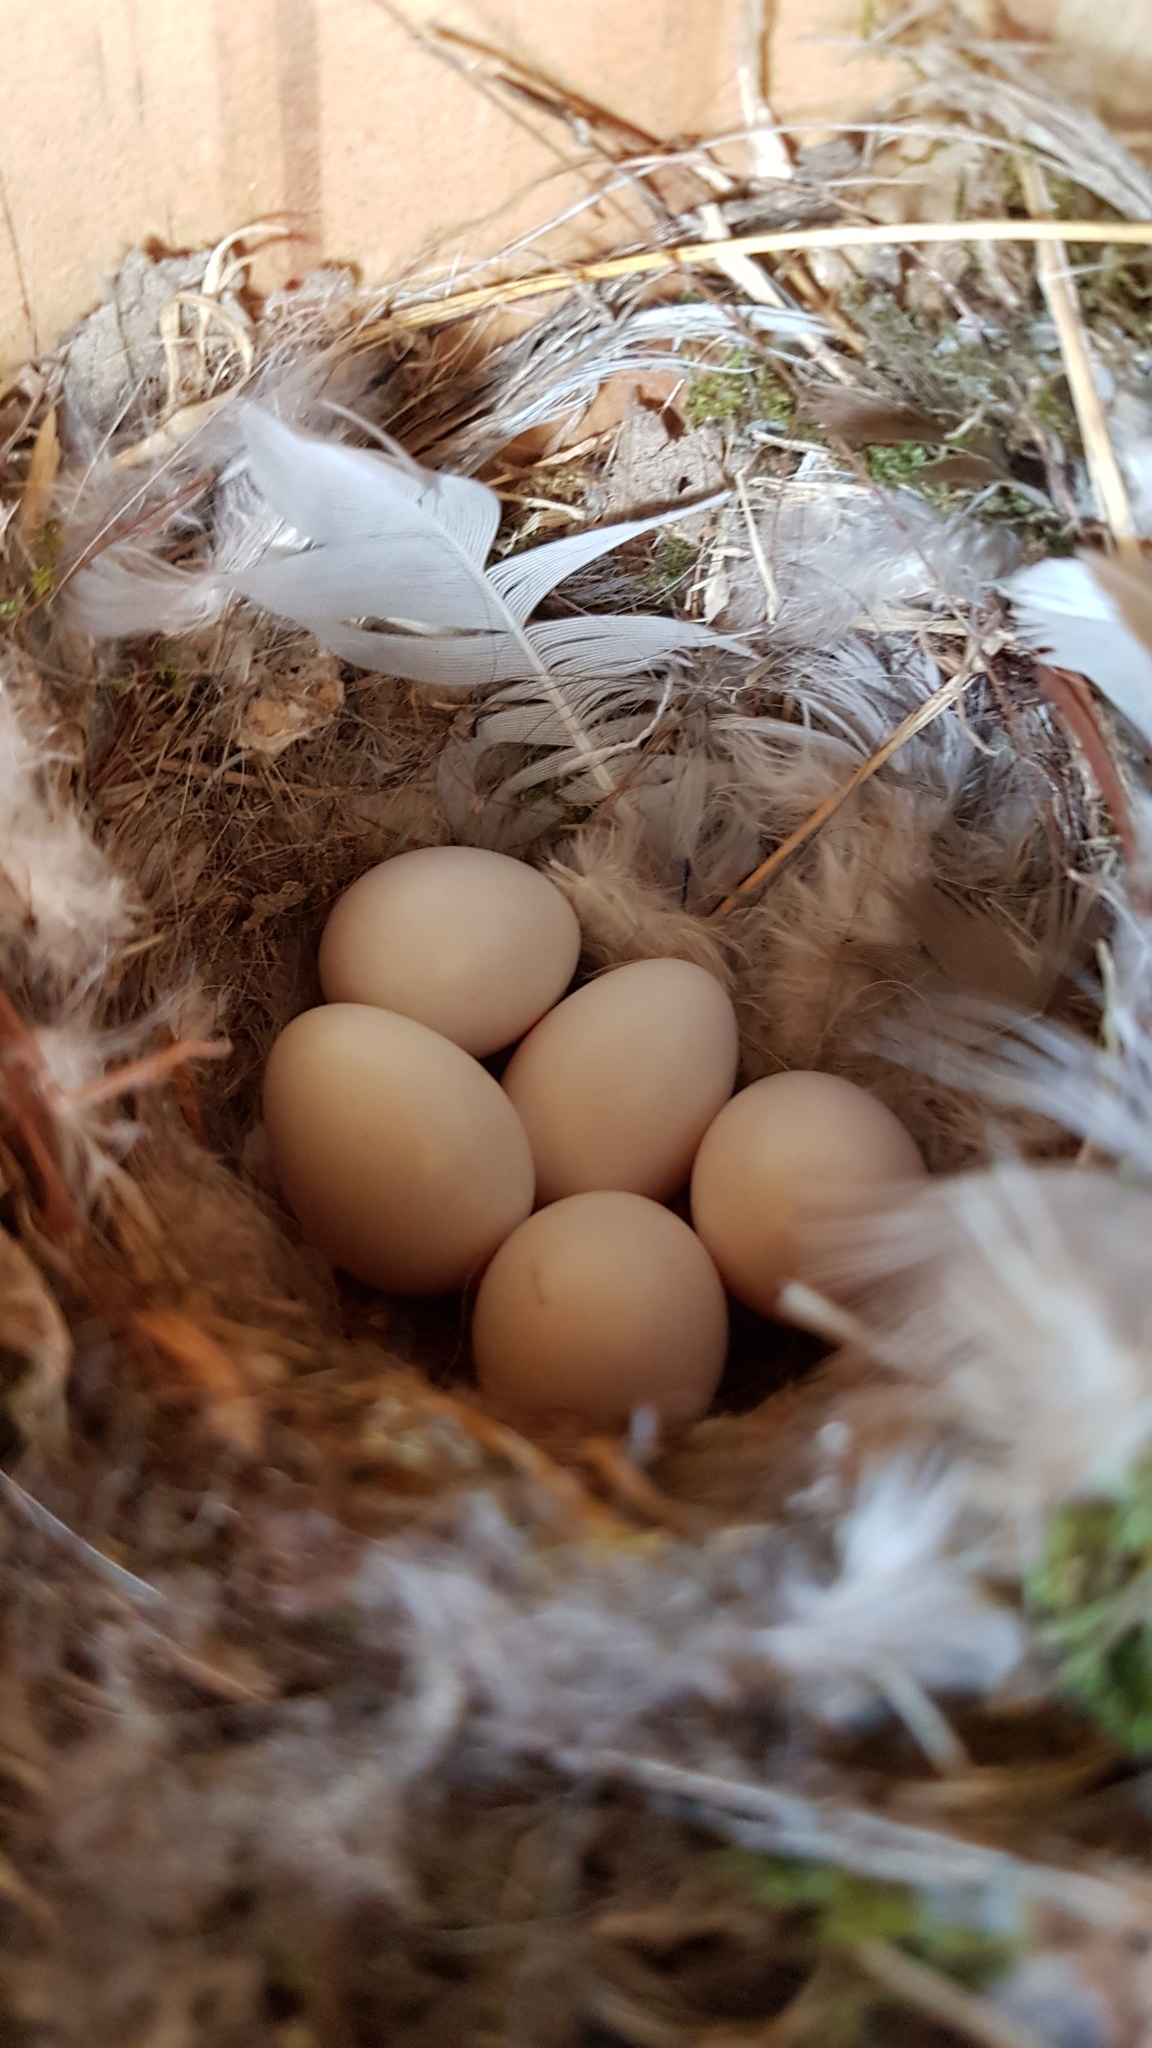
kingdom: Animalia
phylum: Chordata
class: Aves
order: Passeriformes
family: Muscicapidae
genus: Phoenicurus
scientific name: Phoenicurus ochruros
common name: Black redstart
